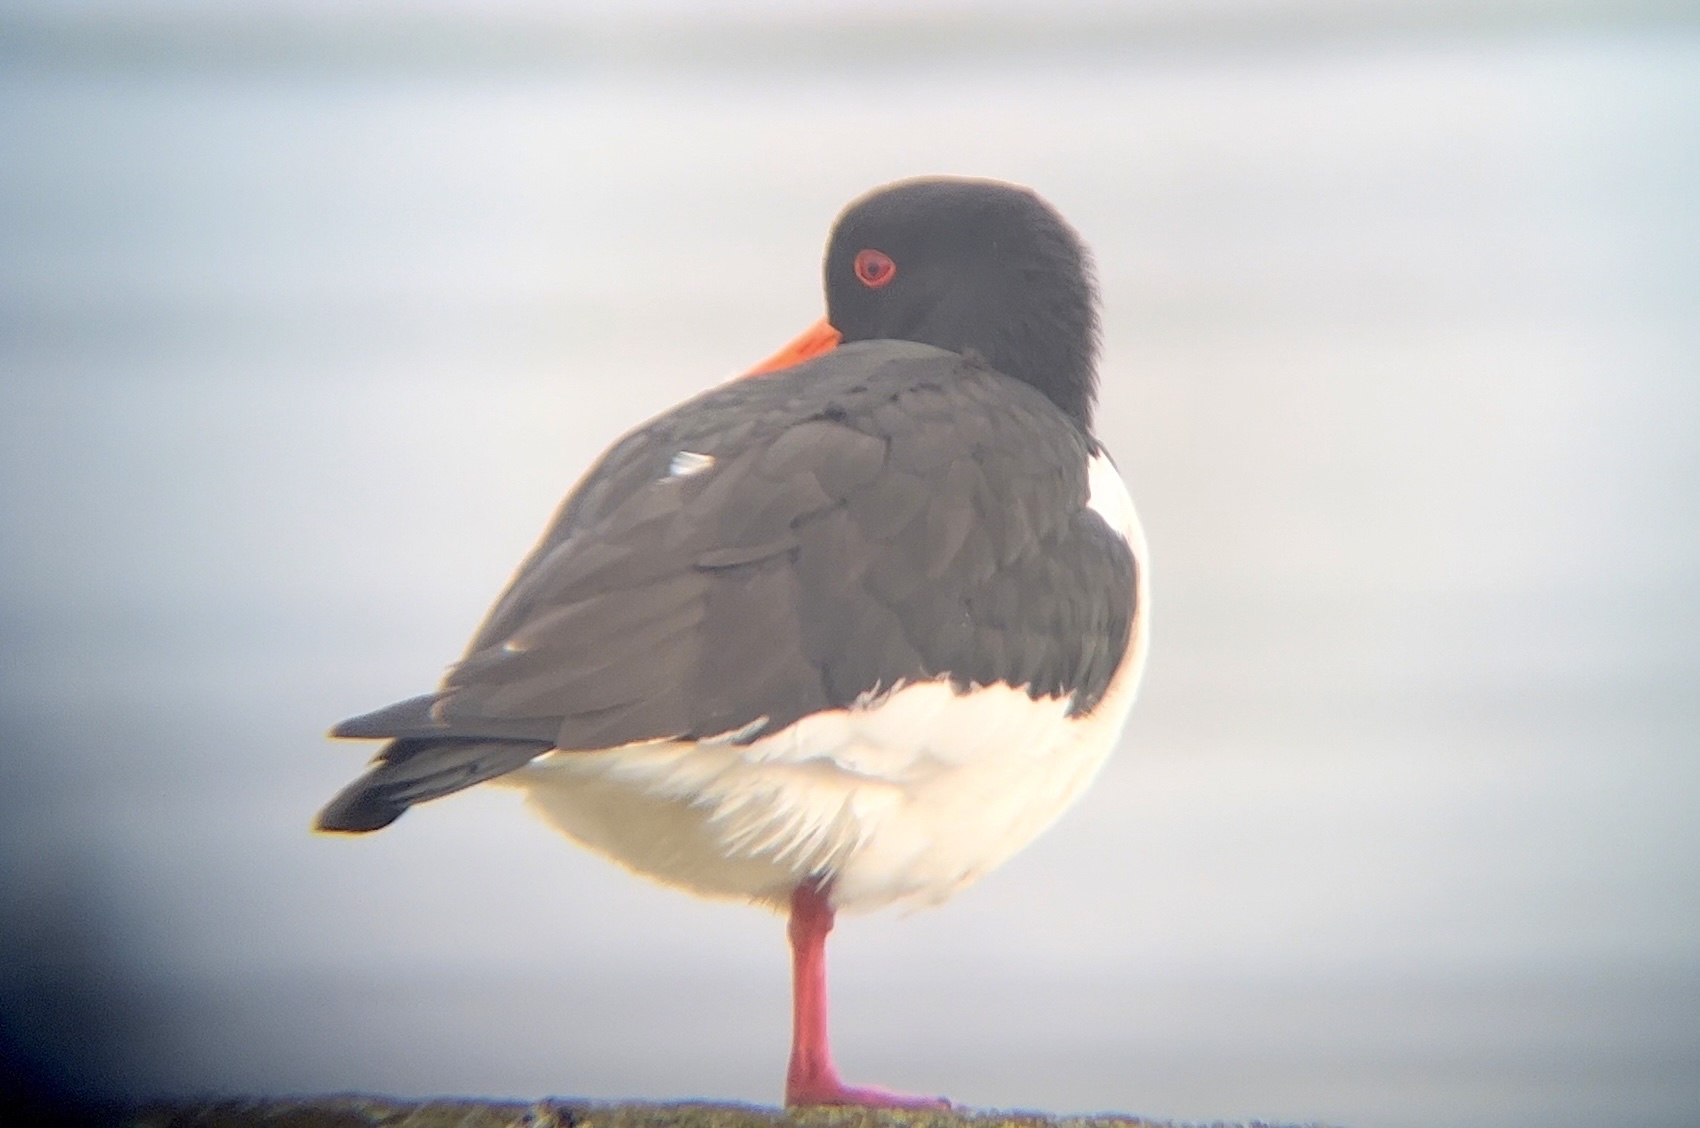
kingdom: Animalia
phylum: Chordata
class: Aves
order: Charadriiformes
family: Haematopodidae
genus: Haematopus
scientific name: Haematopus ostralegus
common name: Eurasian oystercatcher
